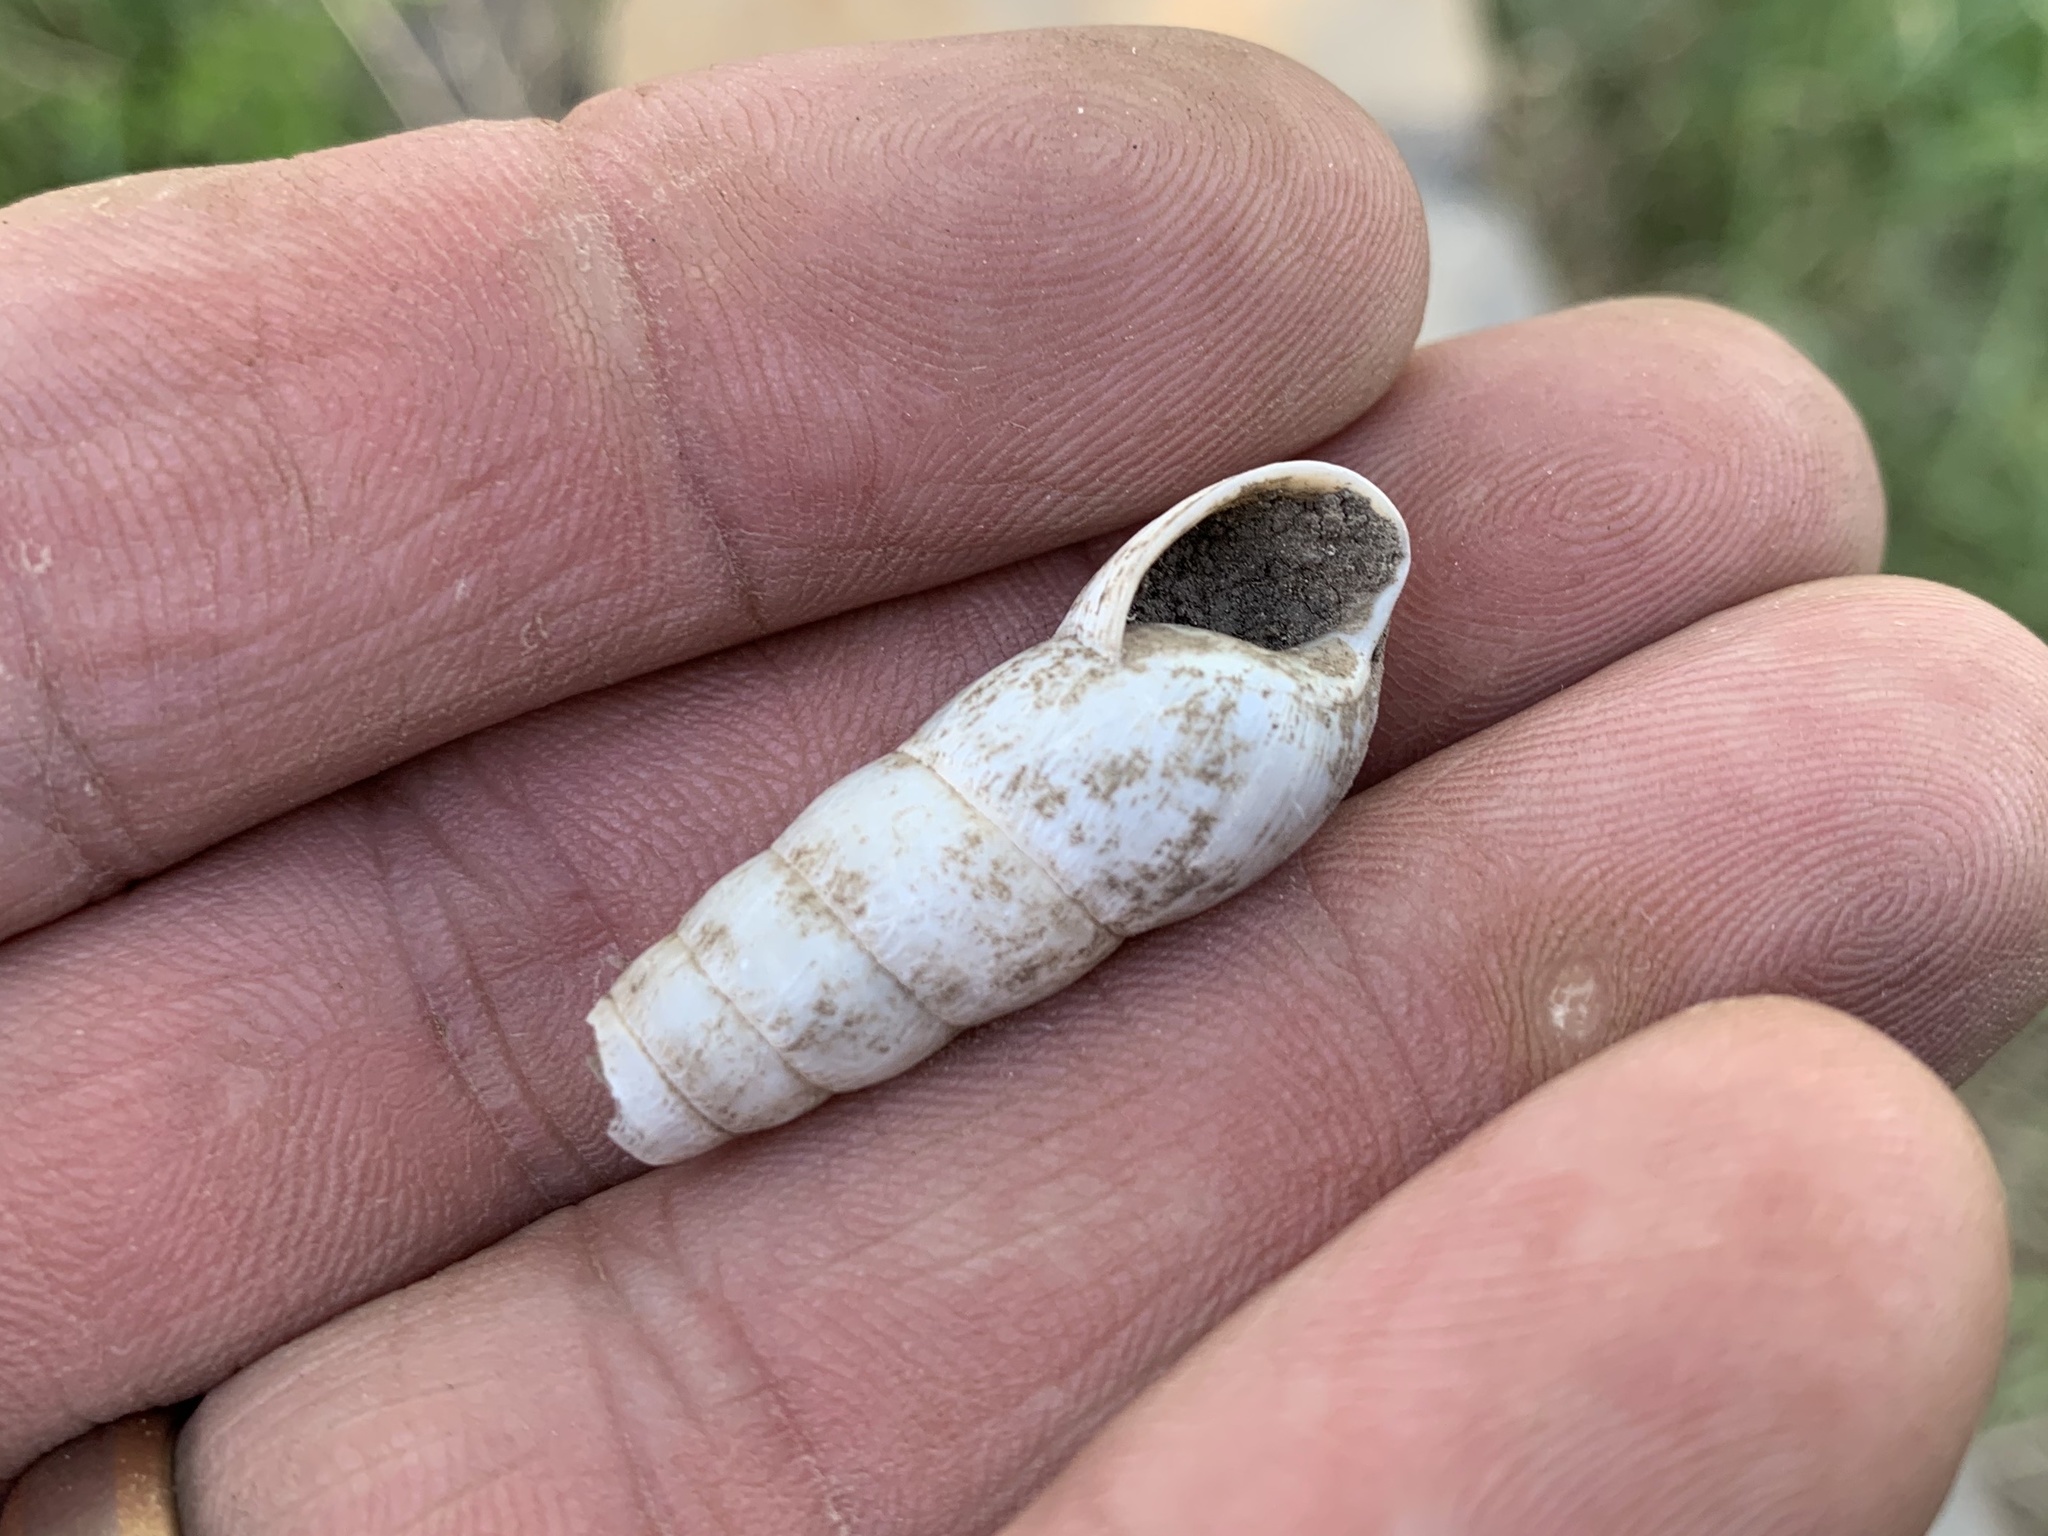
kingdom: Animalia
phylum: Mollusca
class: Gastropoda
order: Stylommatophora
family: Achatinidae
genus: Rumina
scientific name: Rumina decollata
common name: Decollate snail
